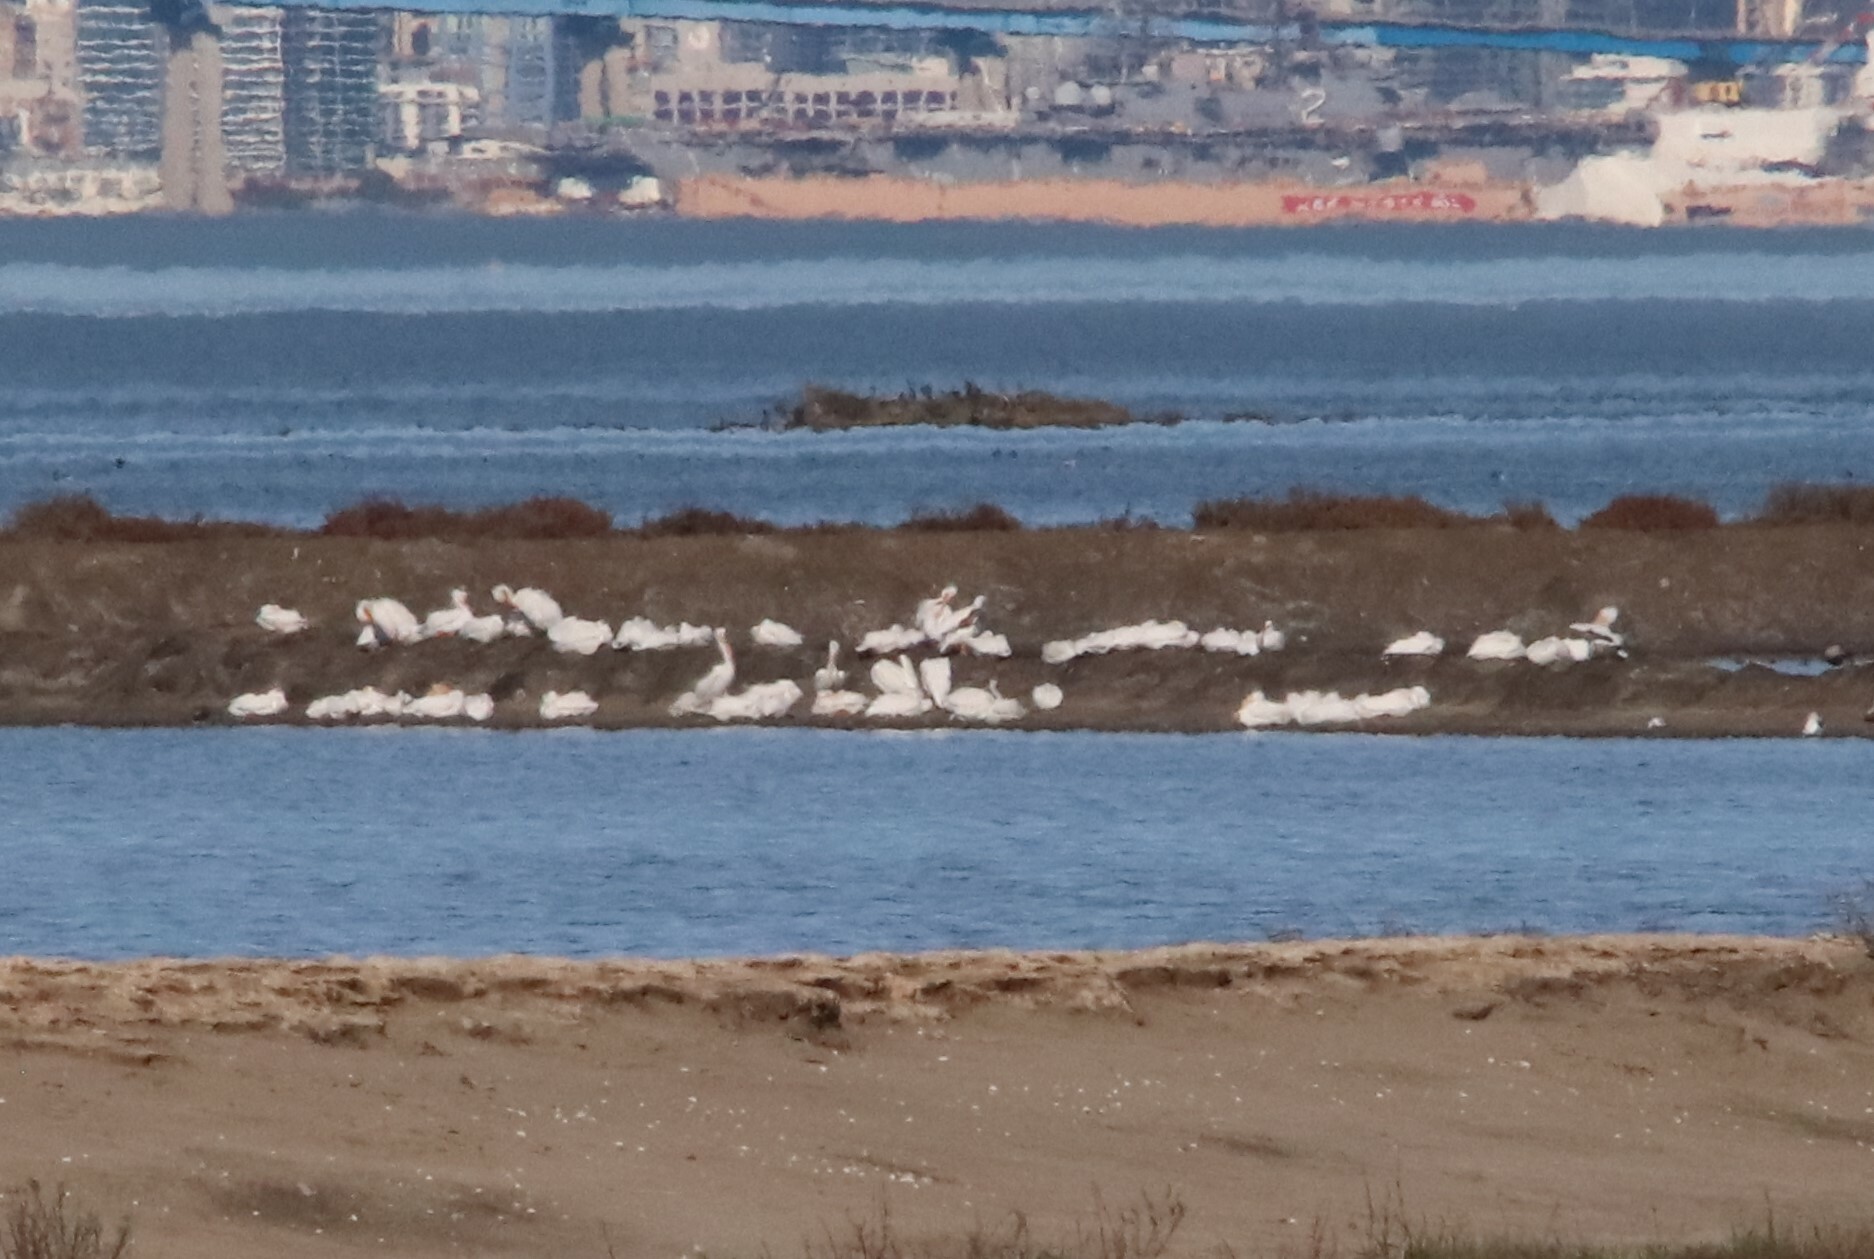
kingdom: Animalia
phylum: Chordata
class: Aves
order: Pelecaniformes
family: Pelecanidae
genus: Pelecanus
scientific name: Pelecanus erythrorhynchos
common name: American white pelican
